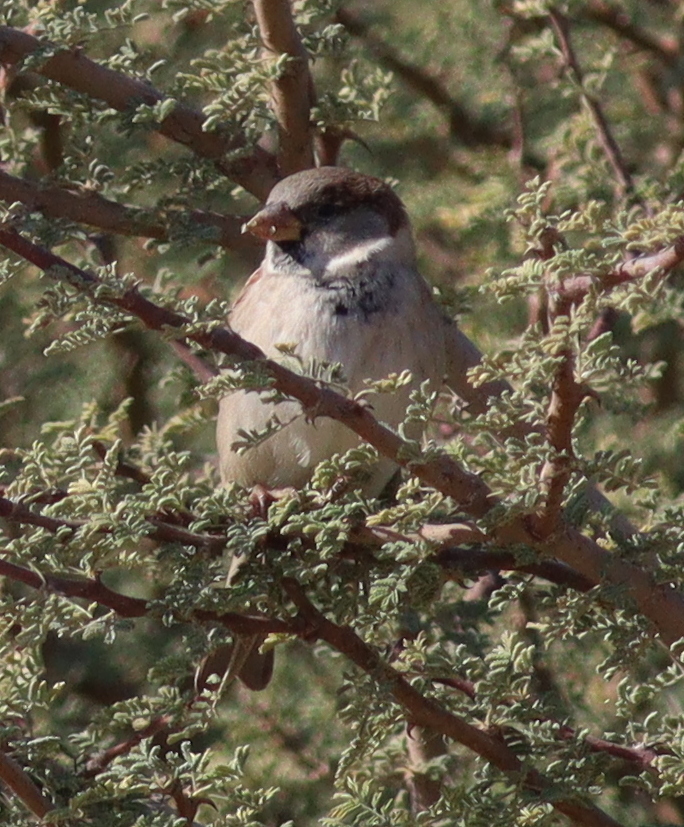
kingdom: Animalia
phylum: Chordata
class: Aves
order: Passeriformes
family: Passeridae
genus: Passer
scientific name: Passer domesticus
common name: House sparrow
